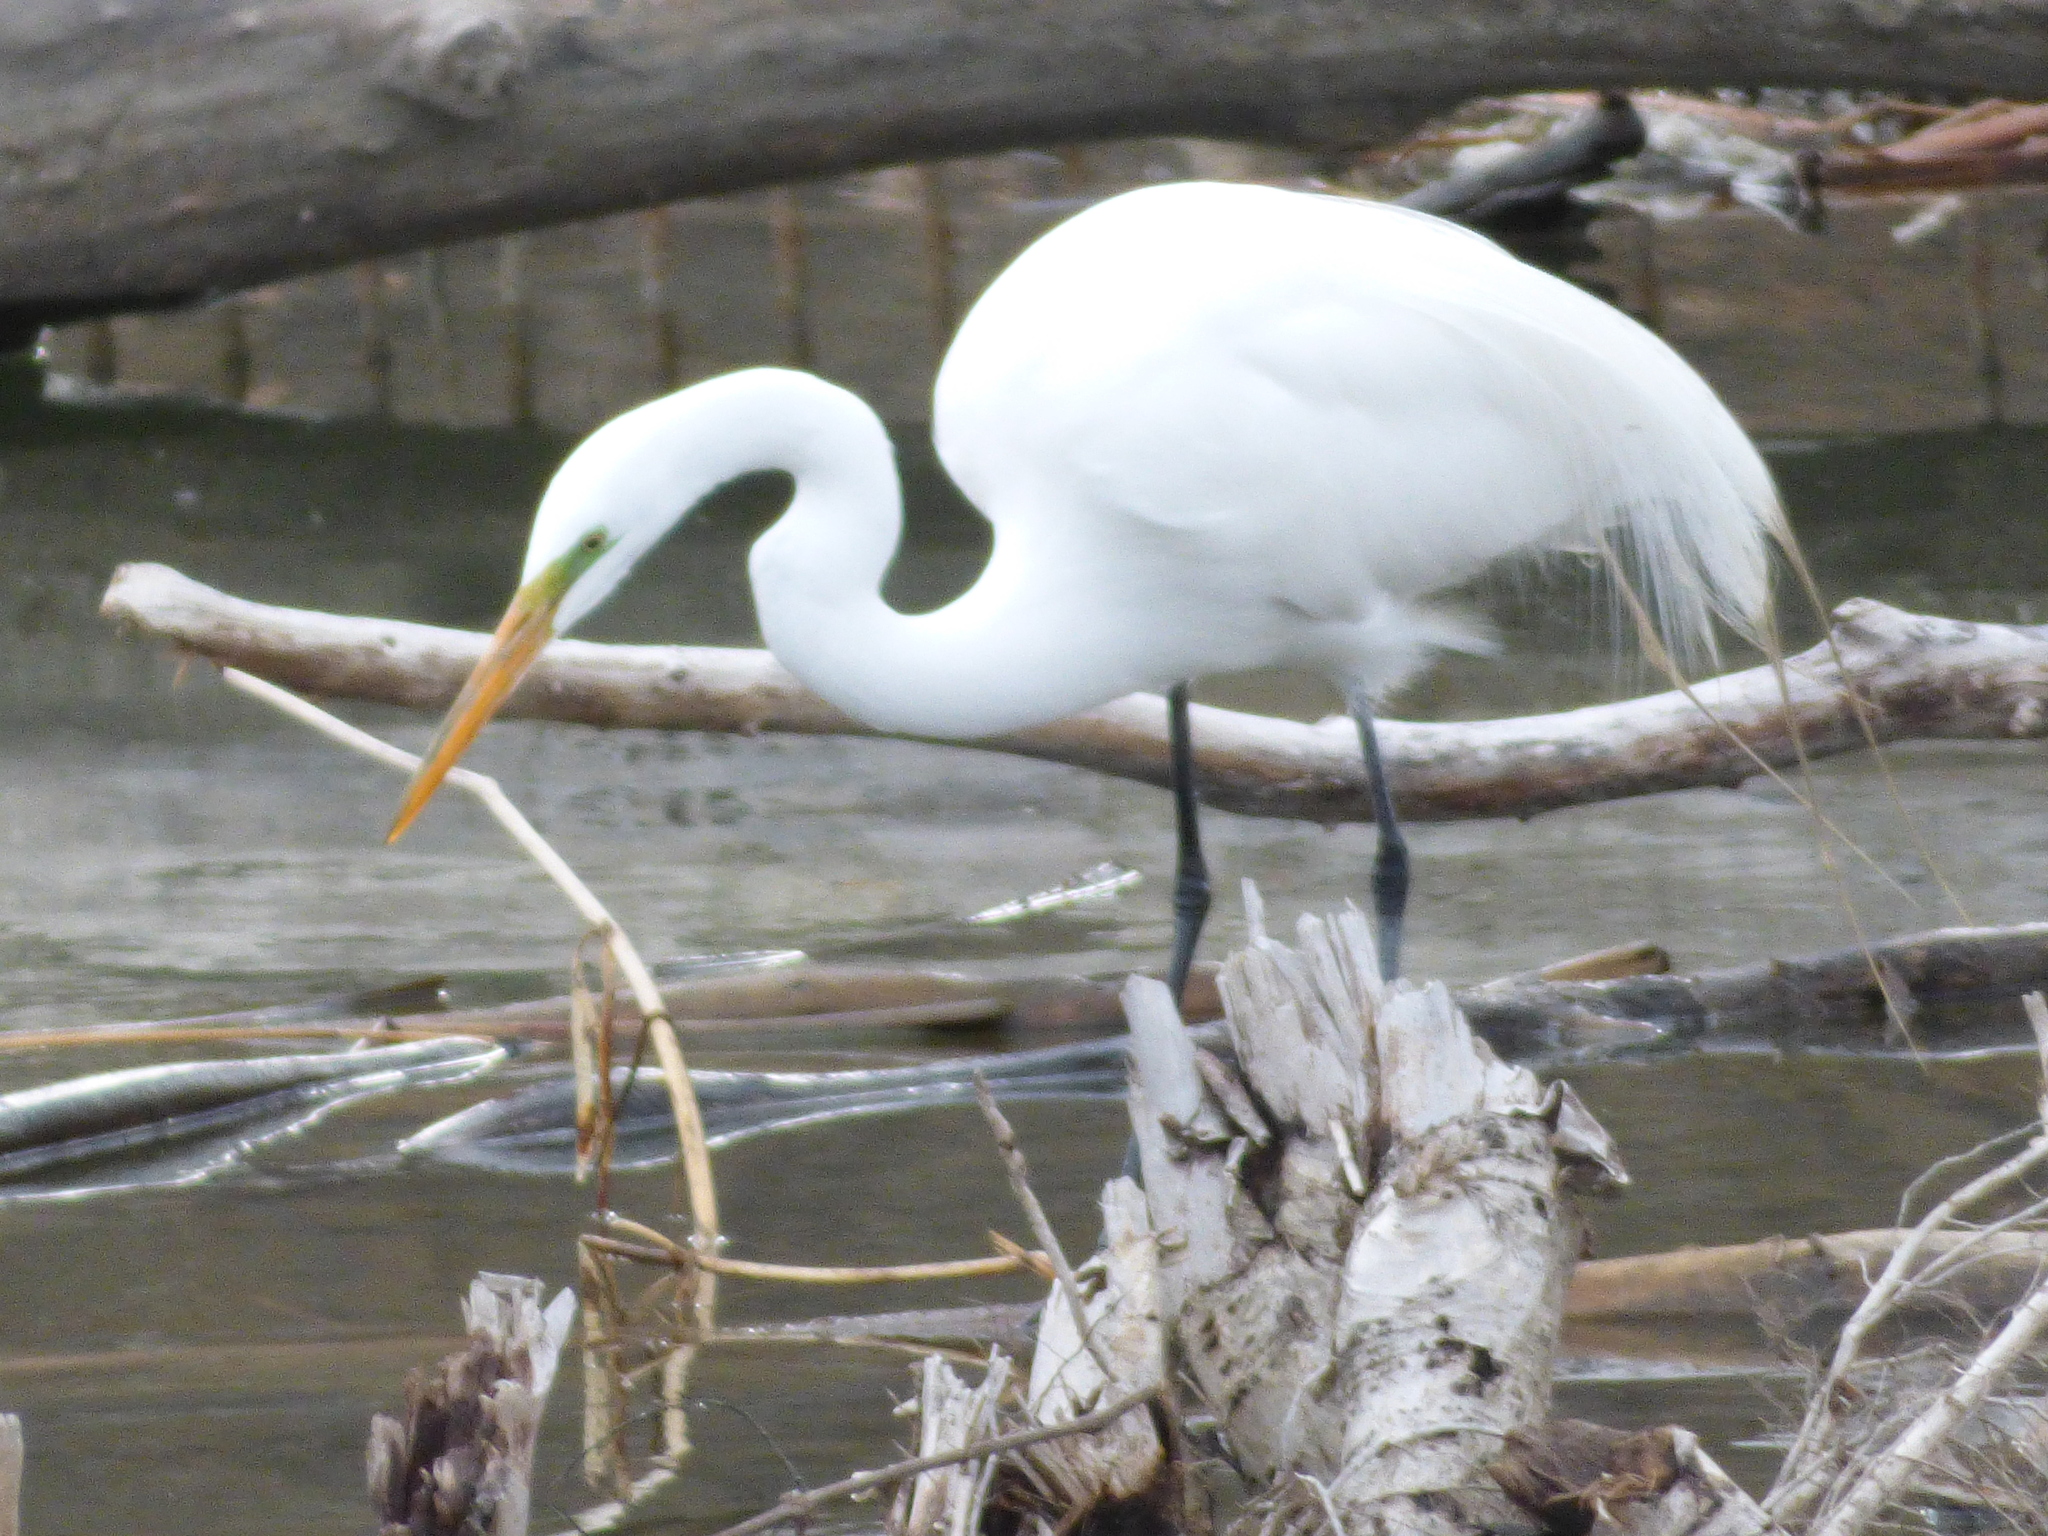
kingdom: Animalia
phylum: Chordata
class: Aves
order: Pelecaniformes
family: Ardeidae
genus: Ardea
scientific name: Ardea alba
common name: Great egret
